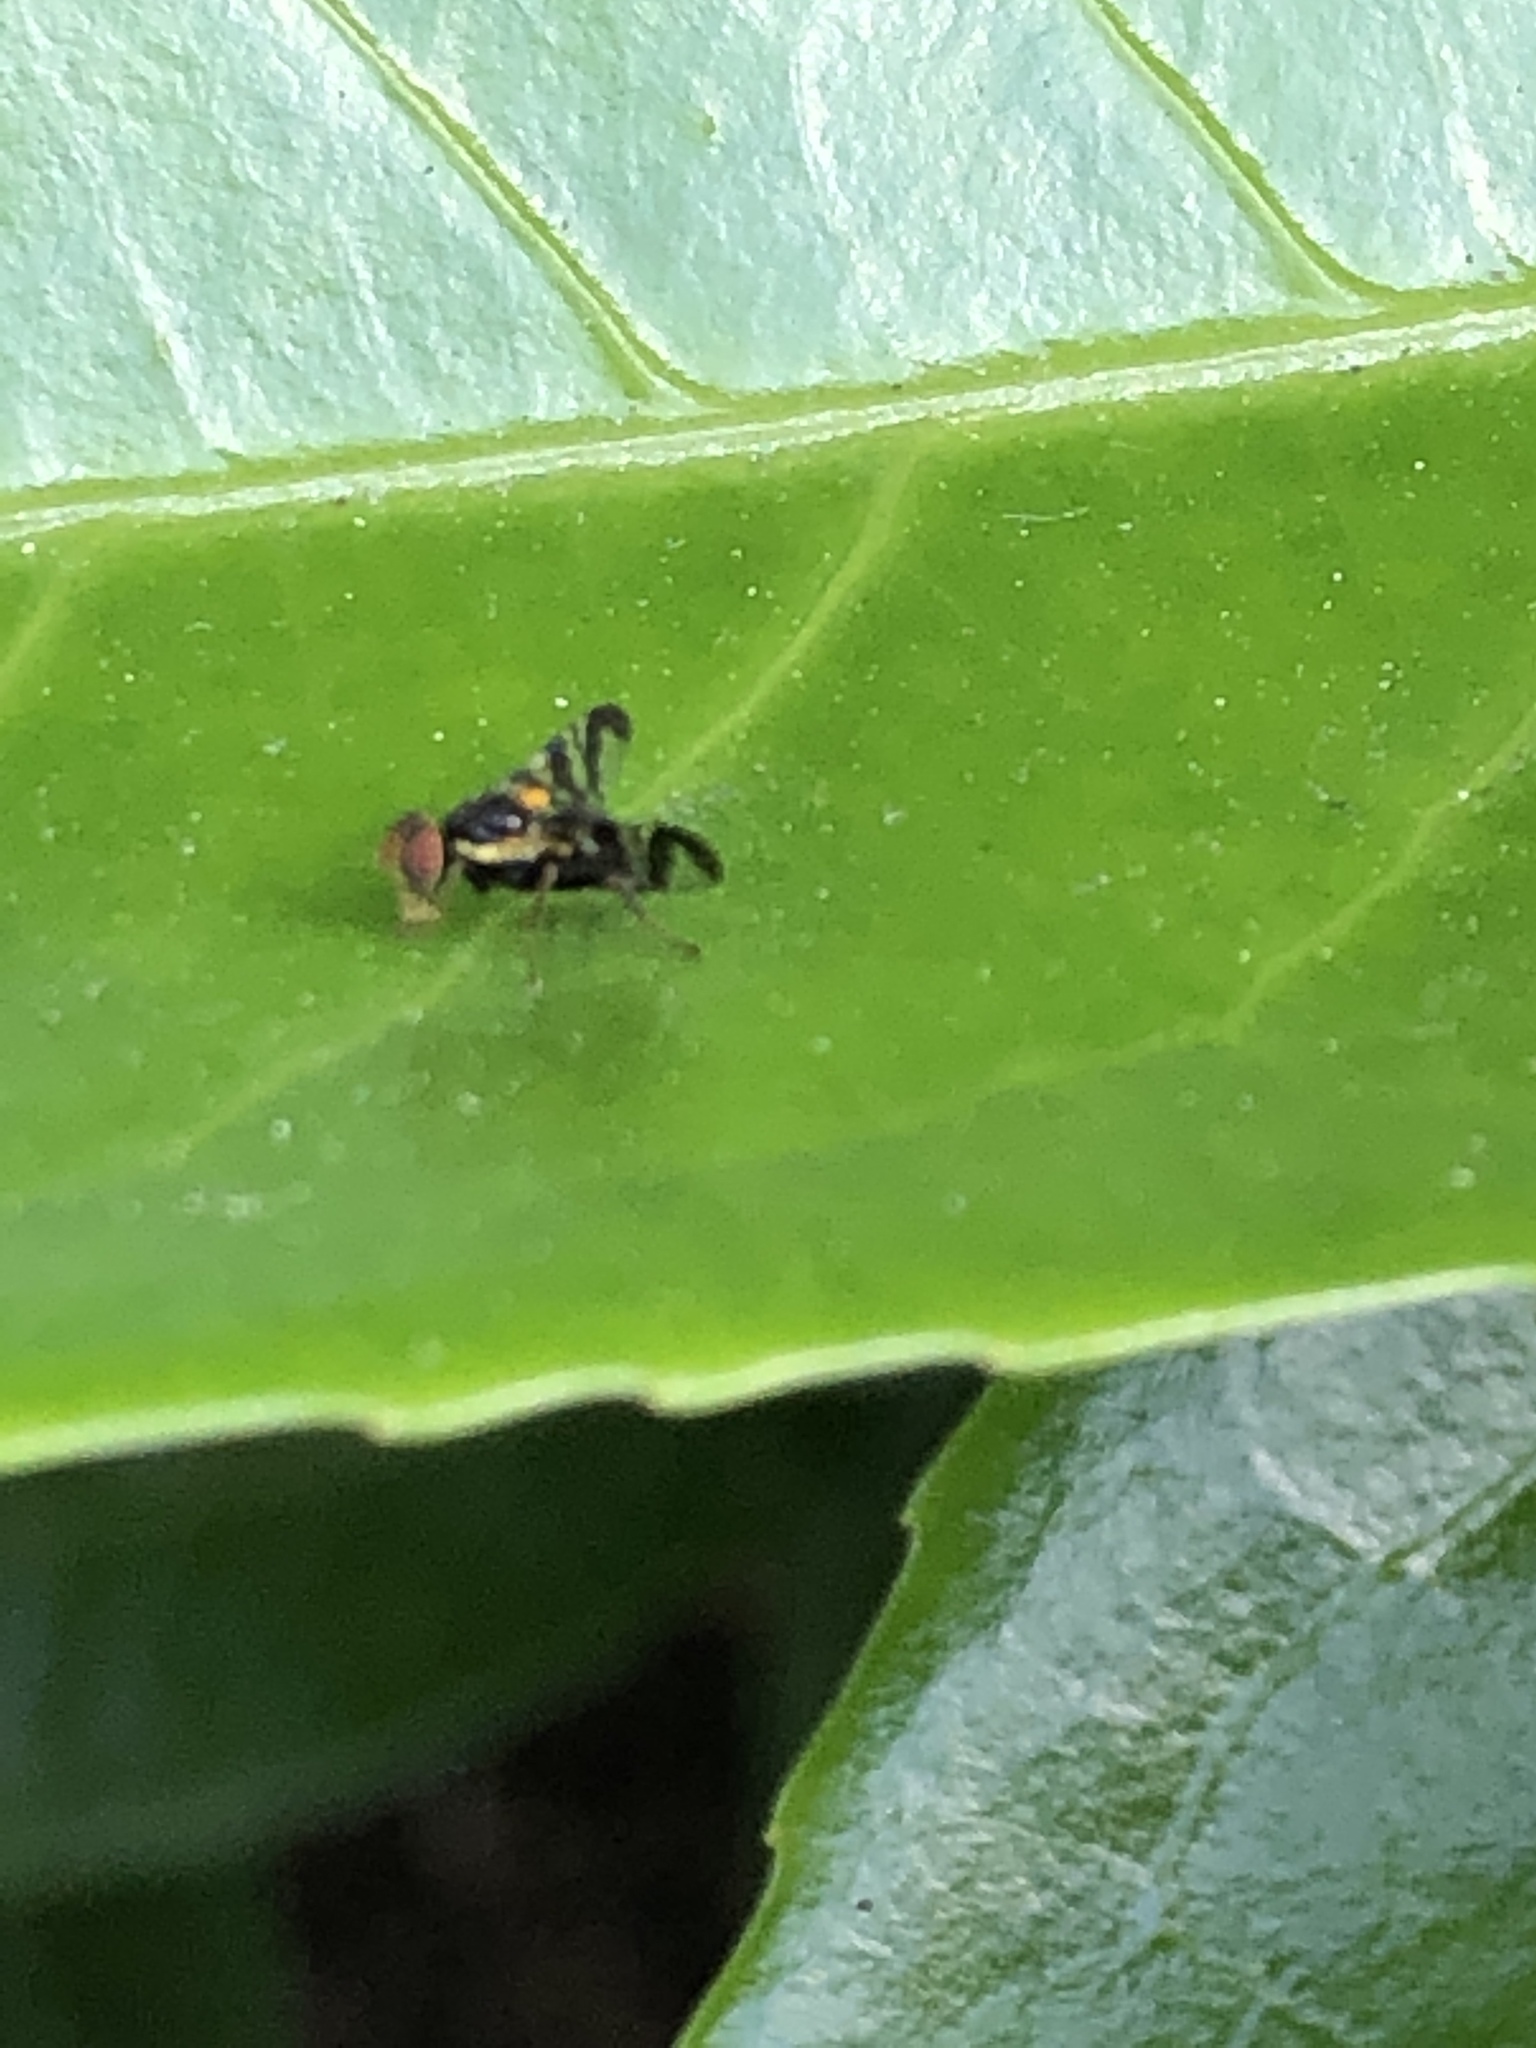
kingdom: Animalia
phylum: Arthropoda
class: Insecta
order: Diptera
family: Tephritidae
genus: Rhagoletis
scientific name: Rhagoletis cerasi
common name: European cherry fruit fly
